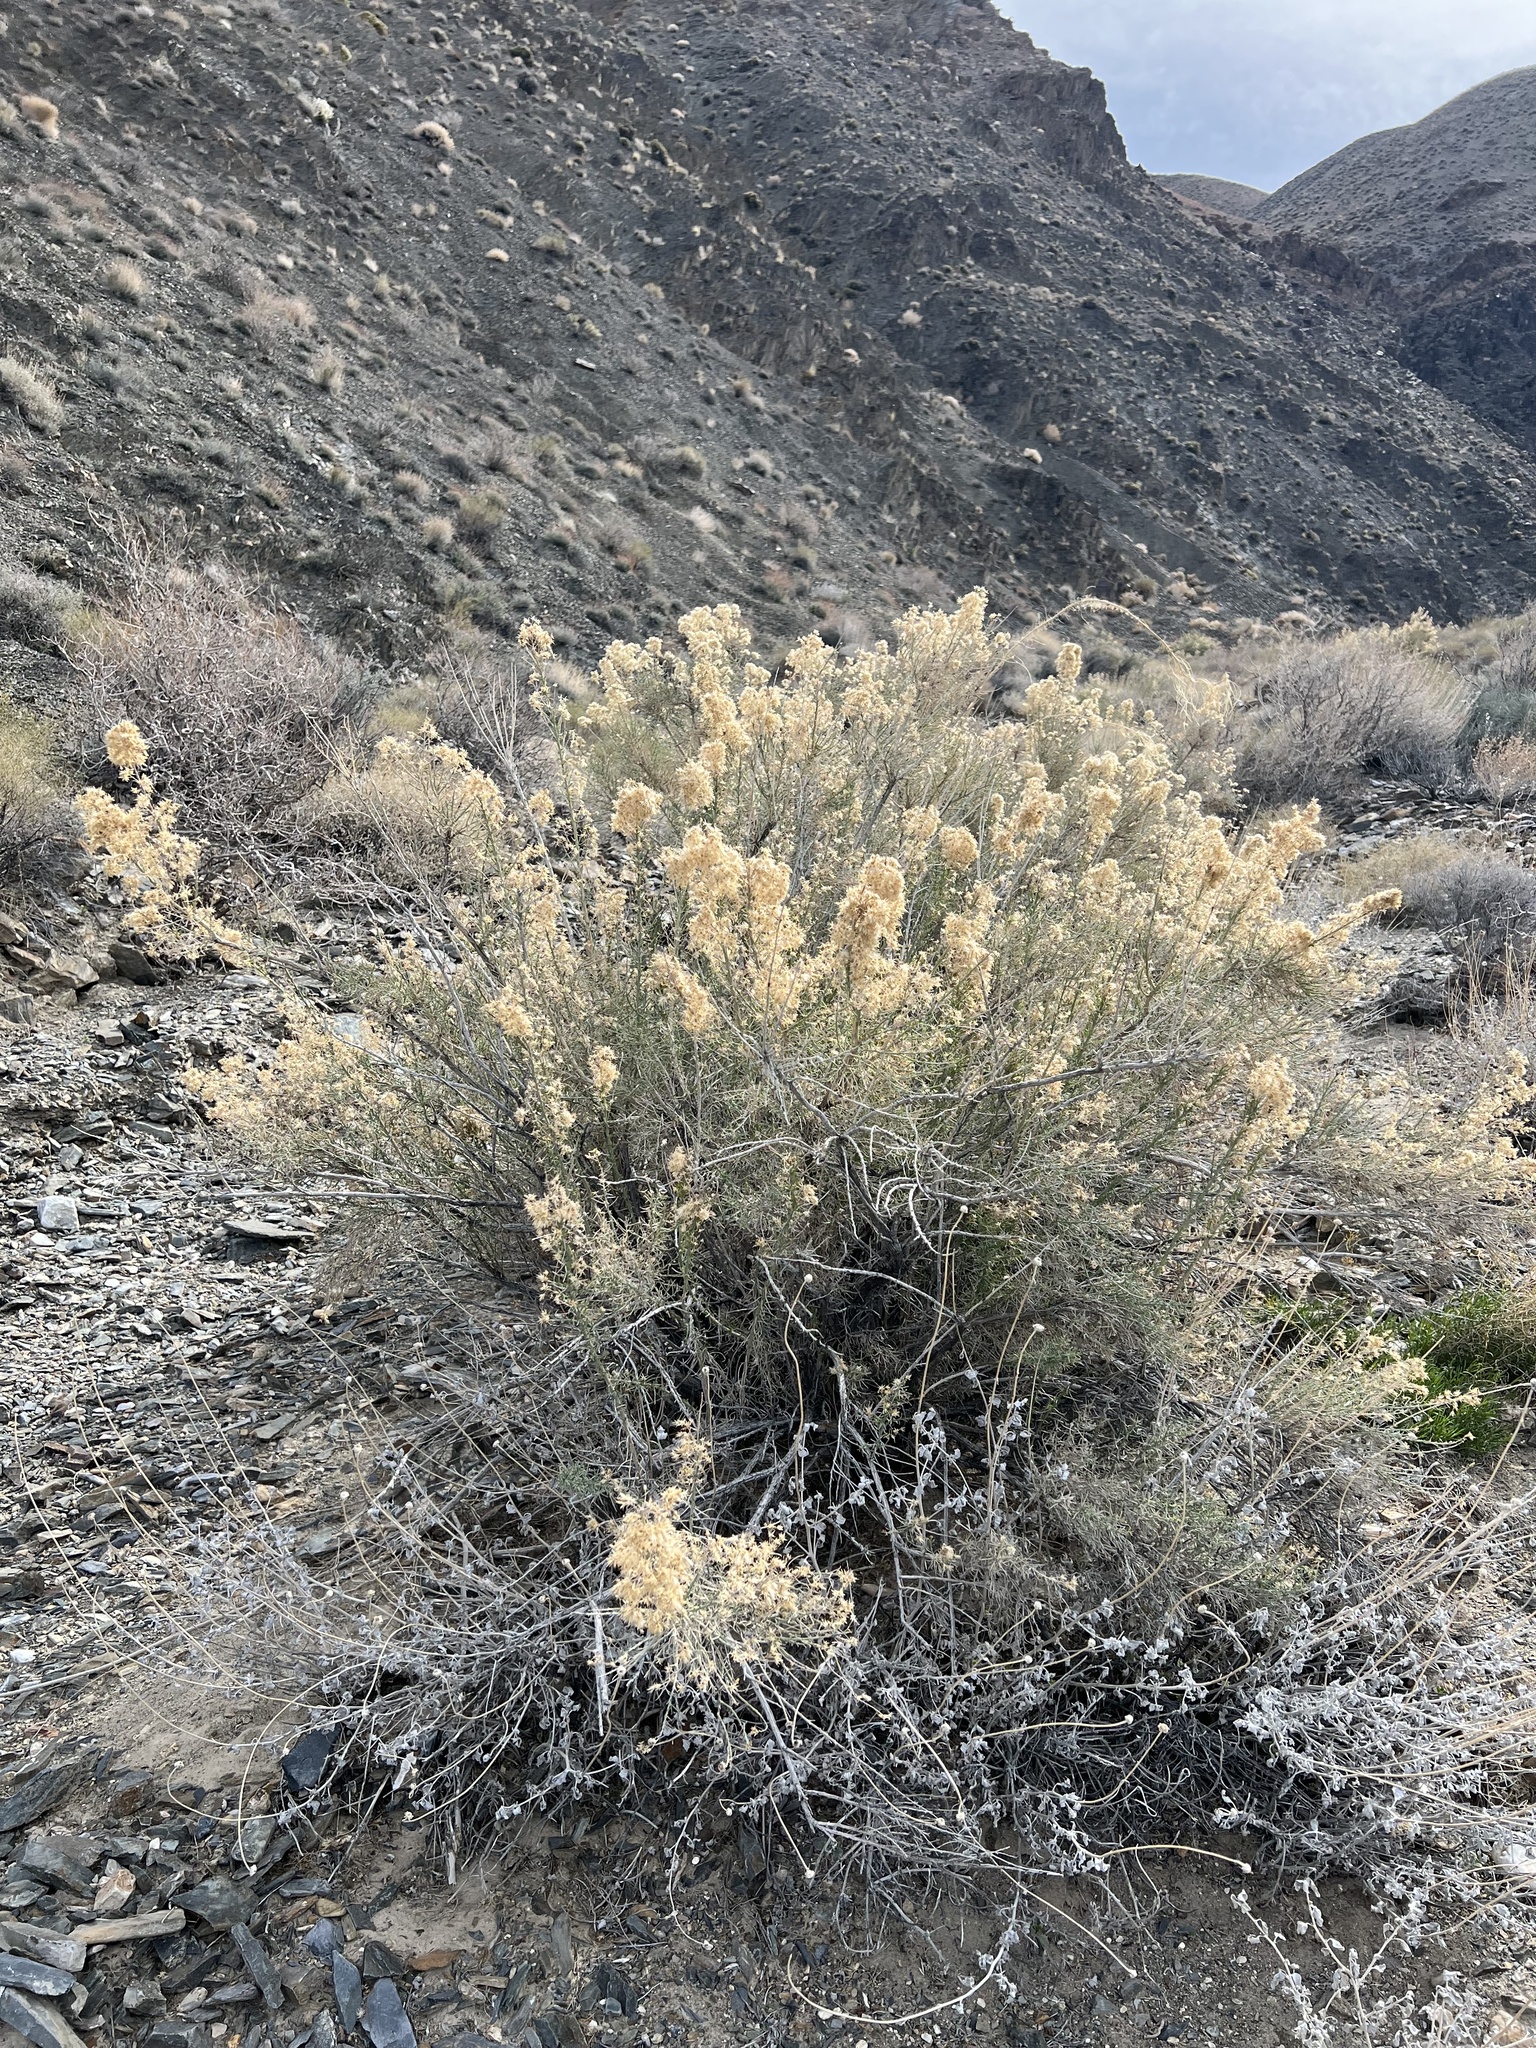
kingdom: Plantae
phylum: Tracheophyta
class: Magnoliopsida
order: Asterales
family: Asteraceae
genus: Ericameria
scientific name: Ericameria paniculata
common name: Punctate rabbitbrush
